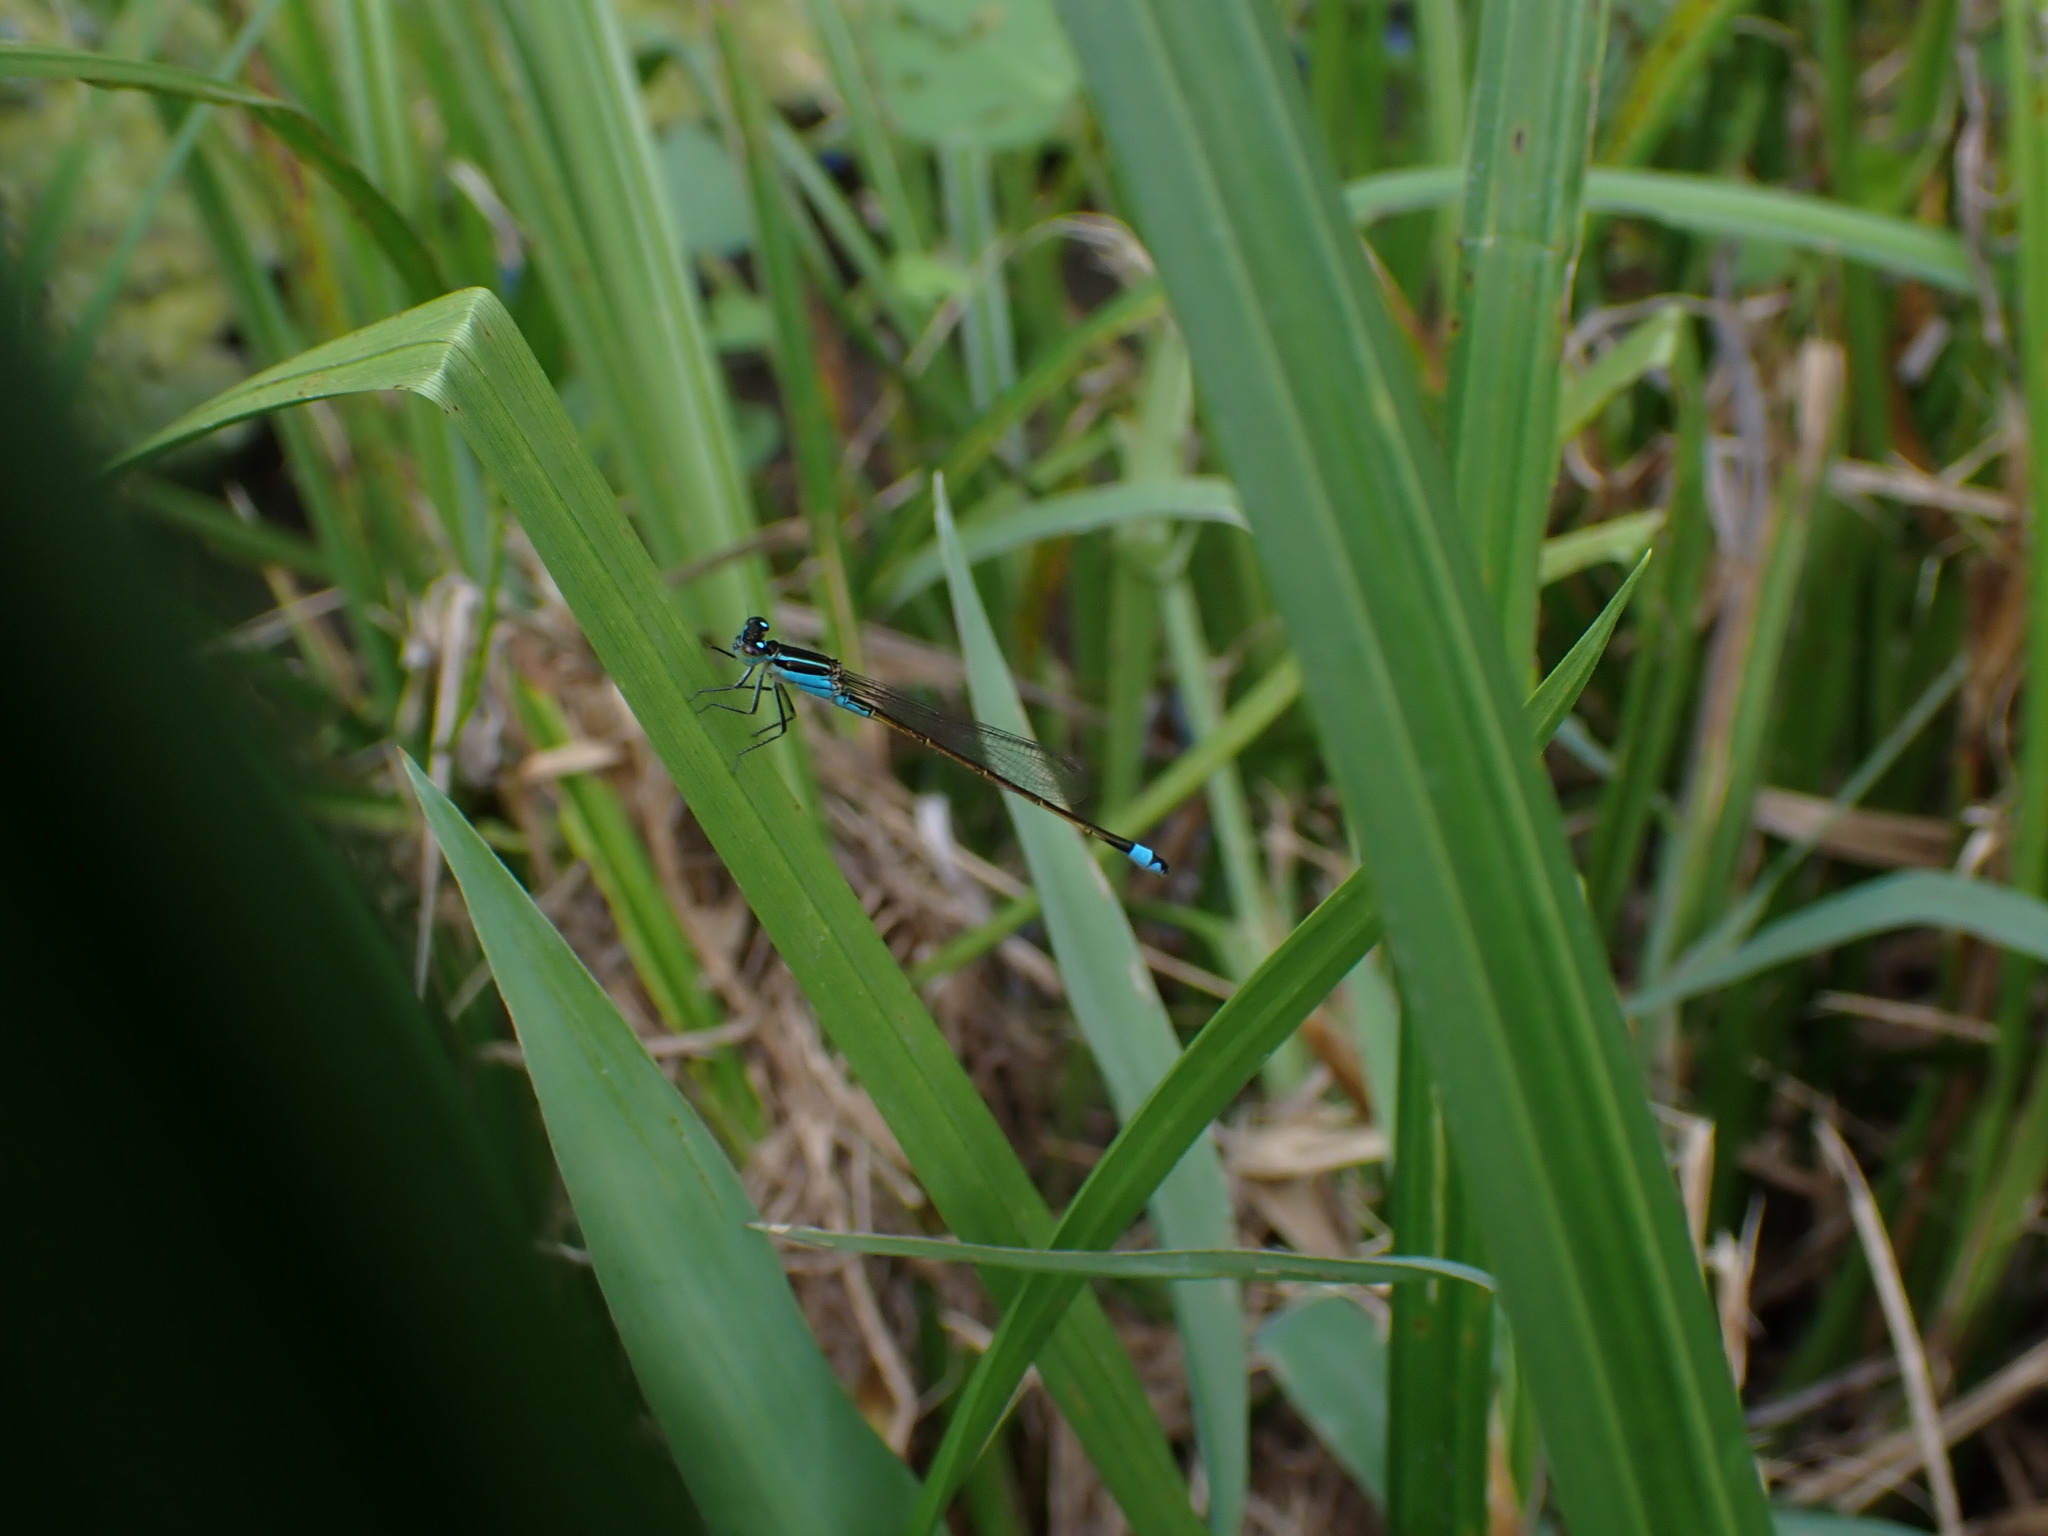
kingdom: Animalia
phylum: Arthropoda
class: Insecta
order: Odonata
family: Coenagrionidae
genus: Ischnura
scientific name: Ischnura ramburii
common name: Rambur's forktail
